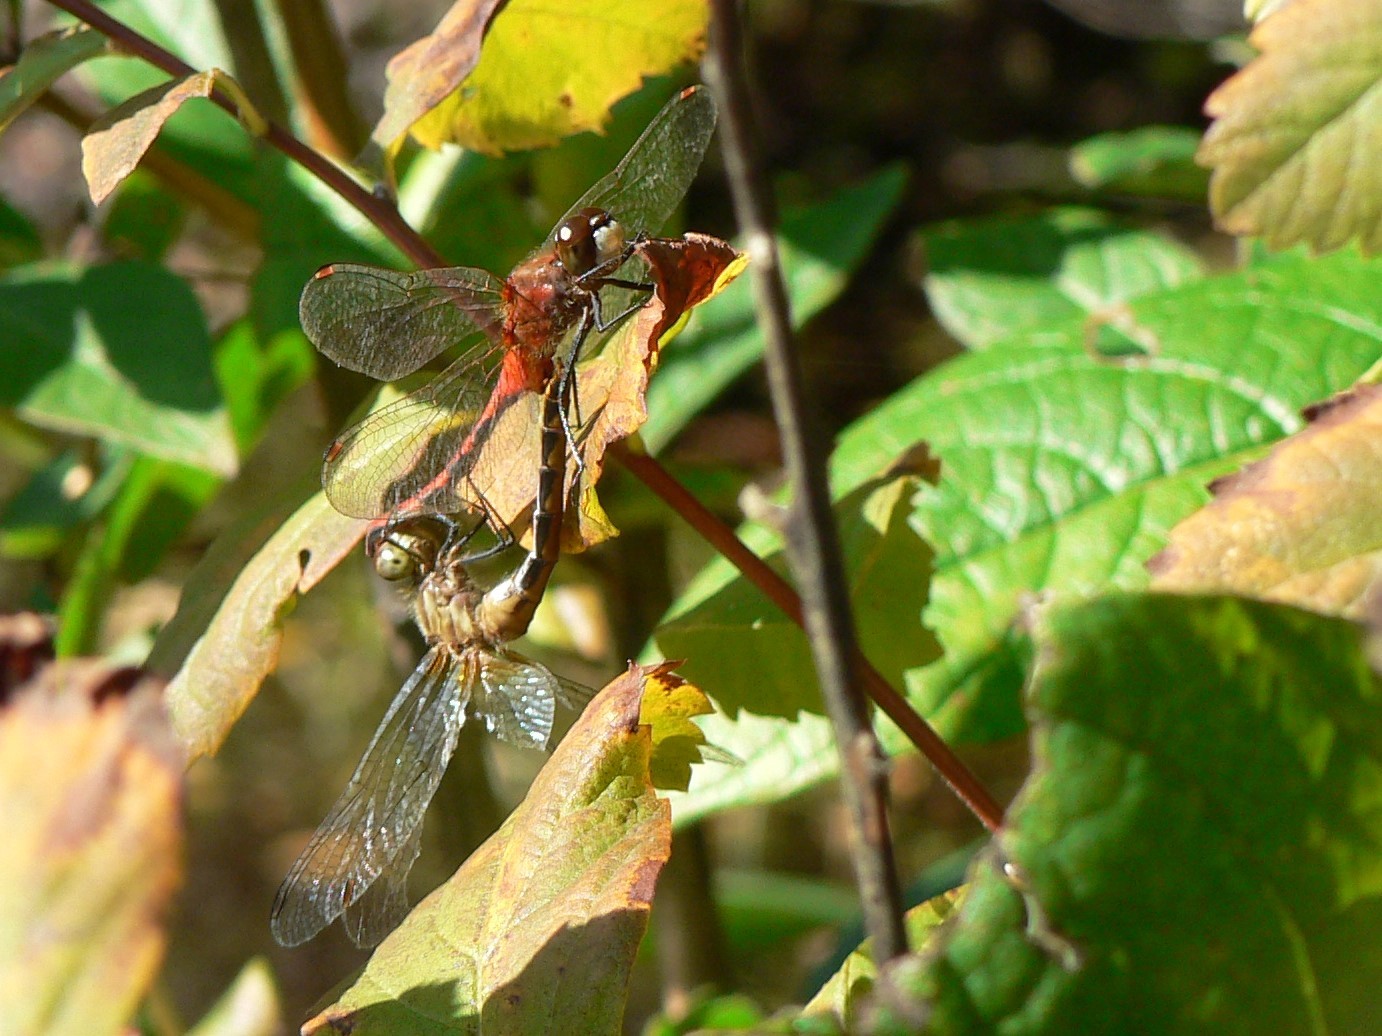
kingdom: Animalia
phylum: Arthropoda
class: Insecta
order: Odonata
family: Libellulidae
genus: Sympetrum
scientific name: Sympetrum obtrusum
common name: White-faced meadowhawk
